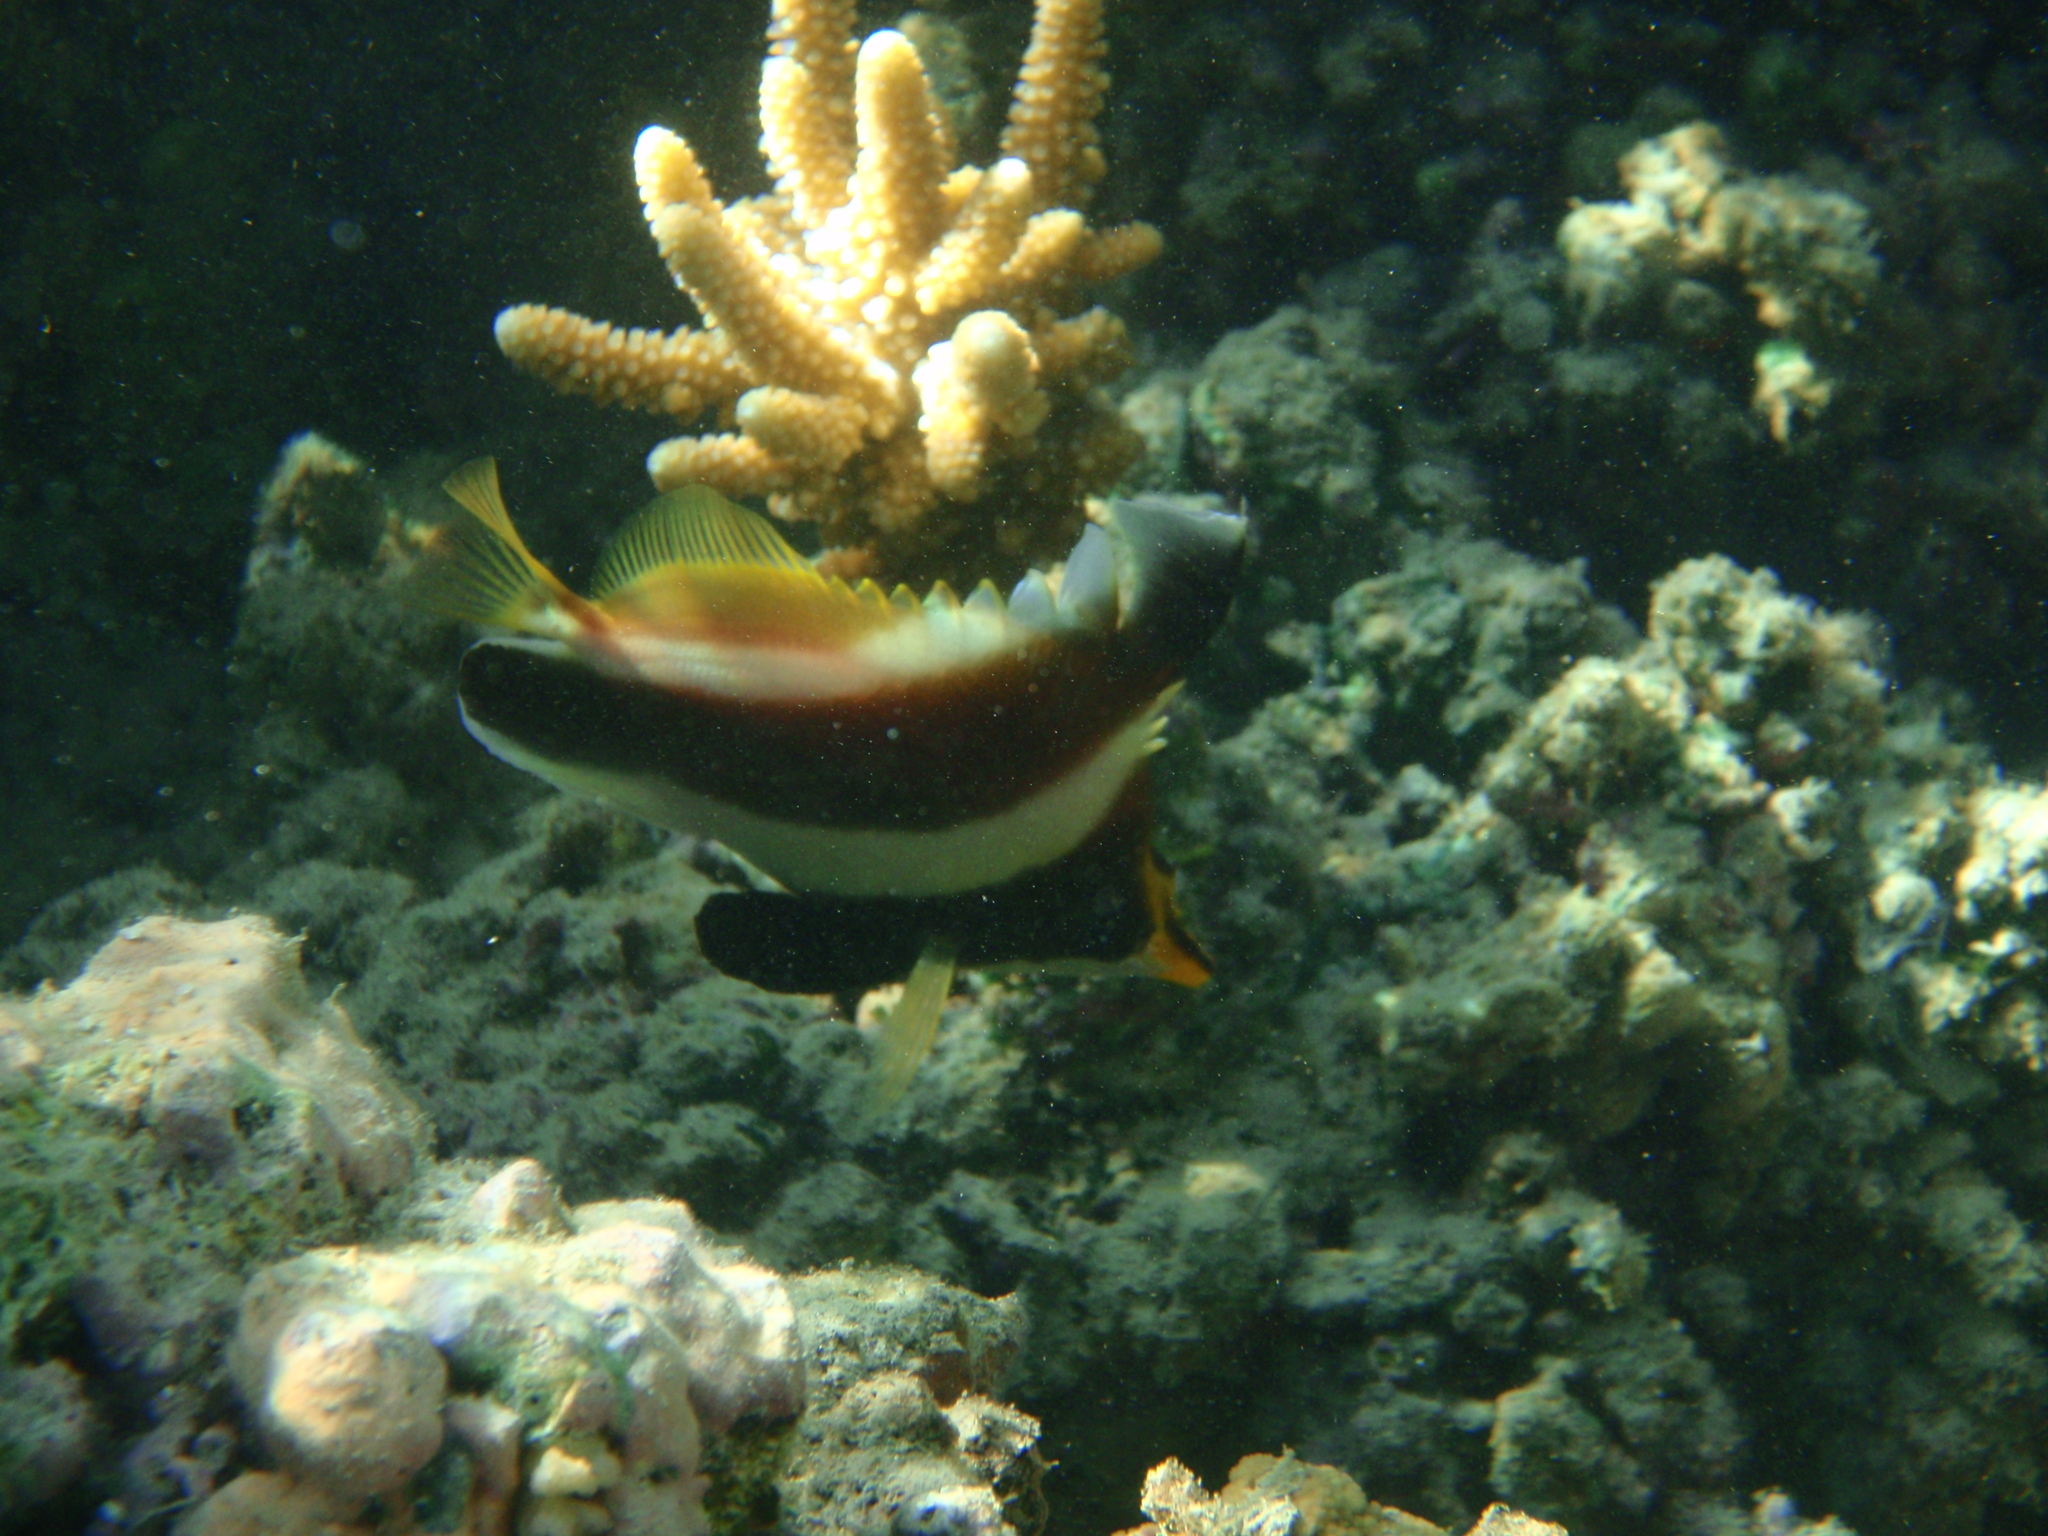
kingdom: Animalia
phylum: Chordata
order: Perciformes
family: Chaetodontidae
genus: Heniochus
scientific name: Heniochus chrysostomus
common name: Horned bannerfish
